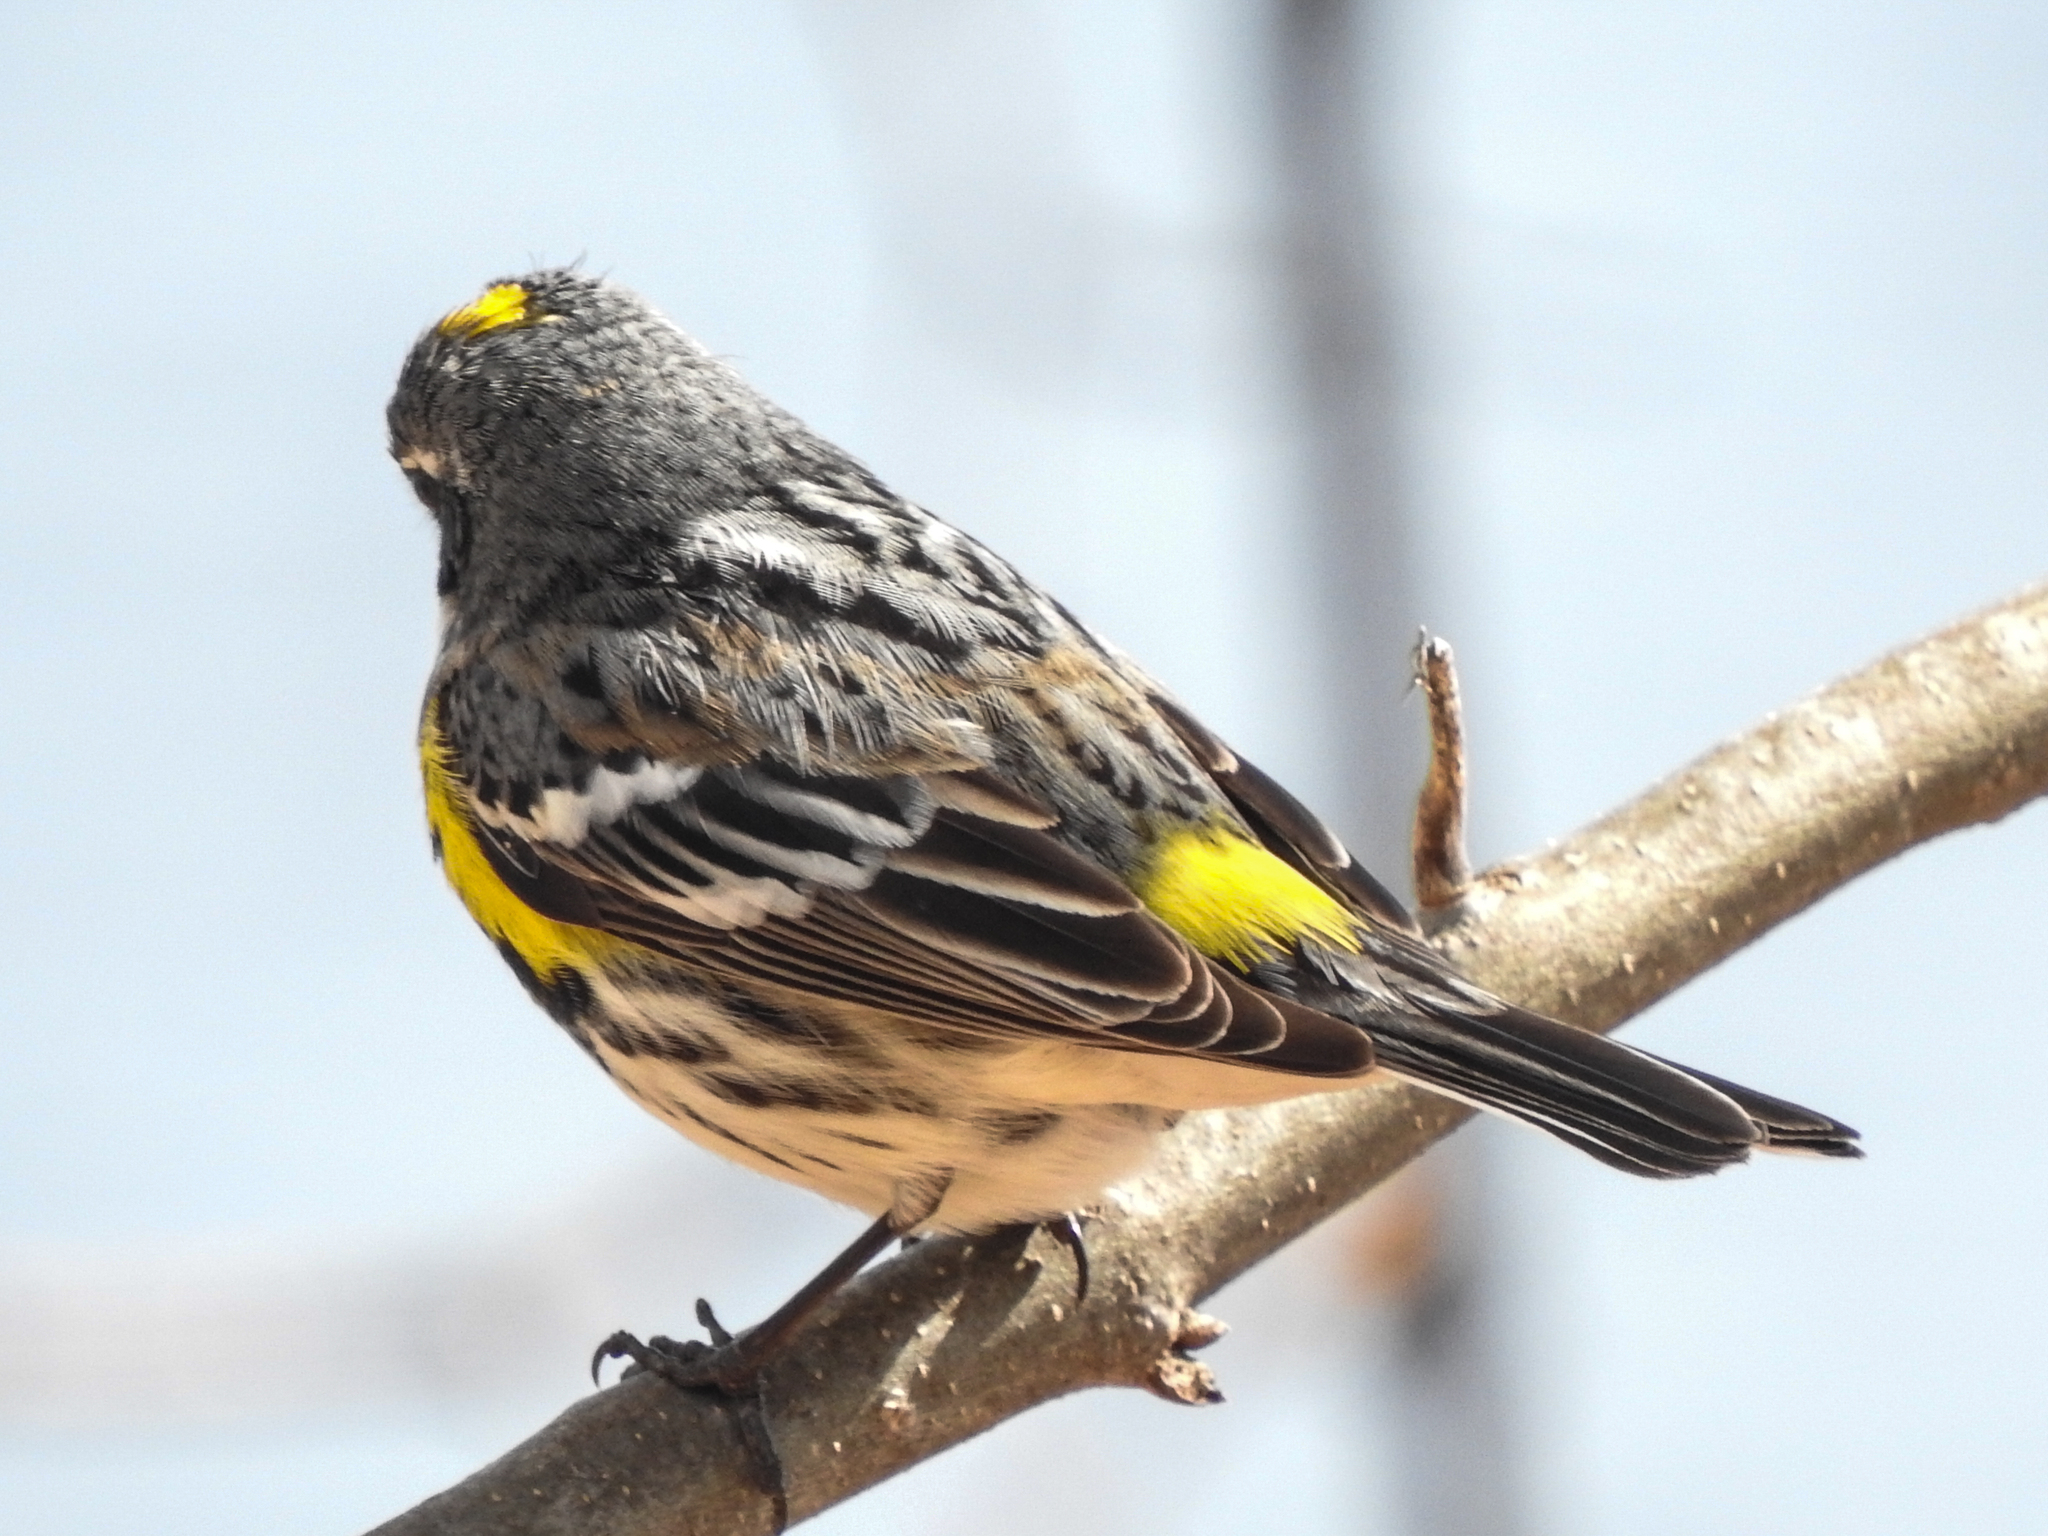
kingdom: Animalia
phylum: Chordata
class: Aves
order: Passeriformes
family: Parulidae
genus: Setophaga
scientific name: Setophaga coronata
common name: Myrtle warbler
